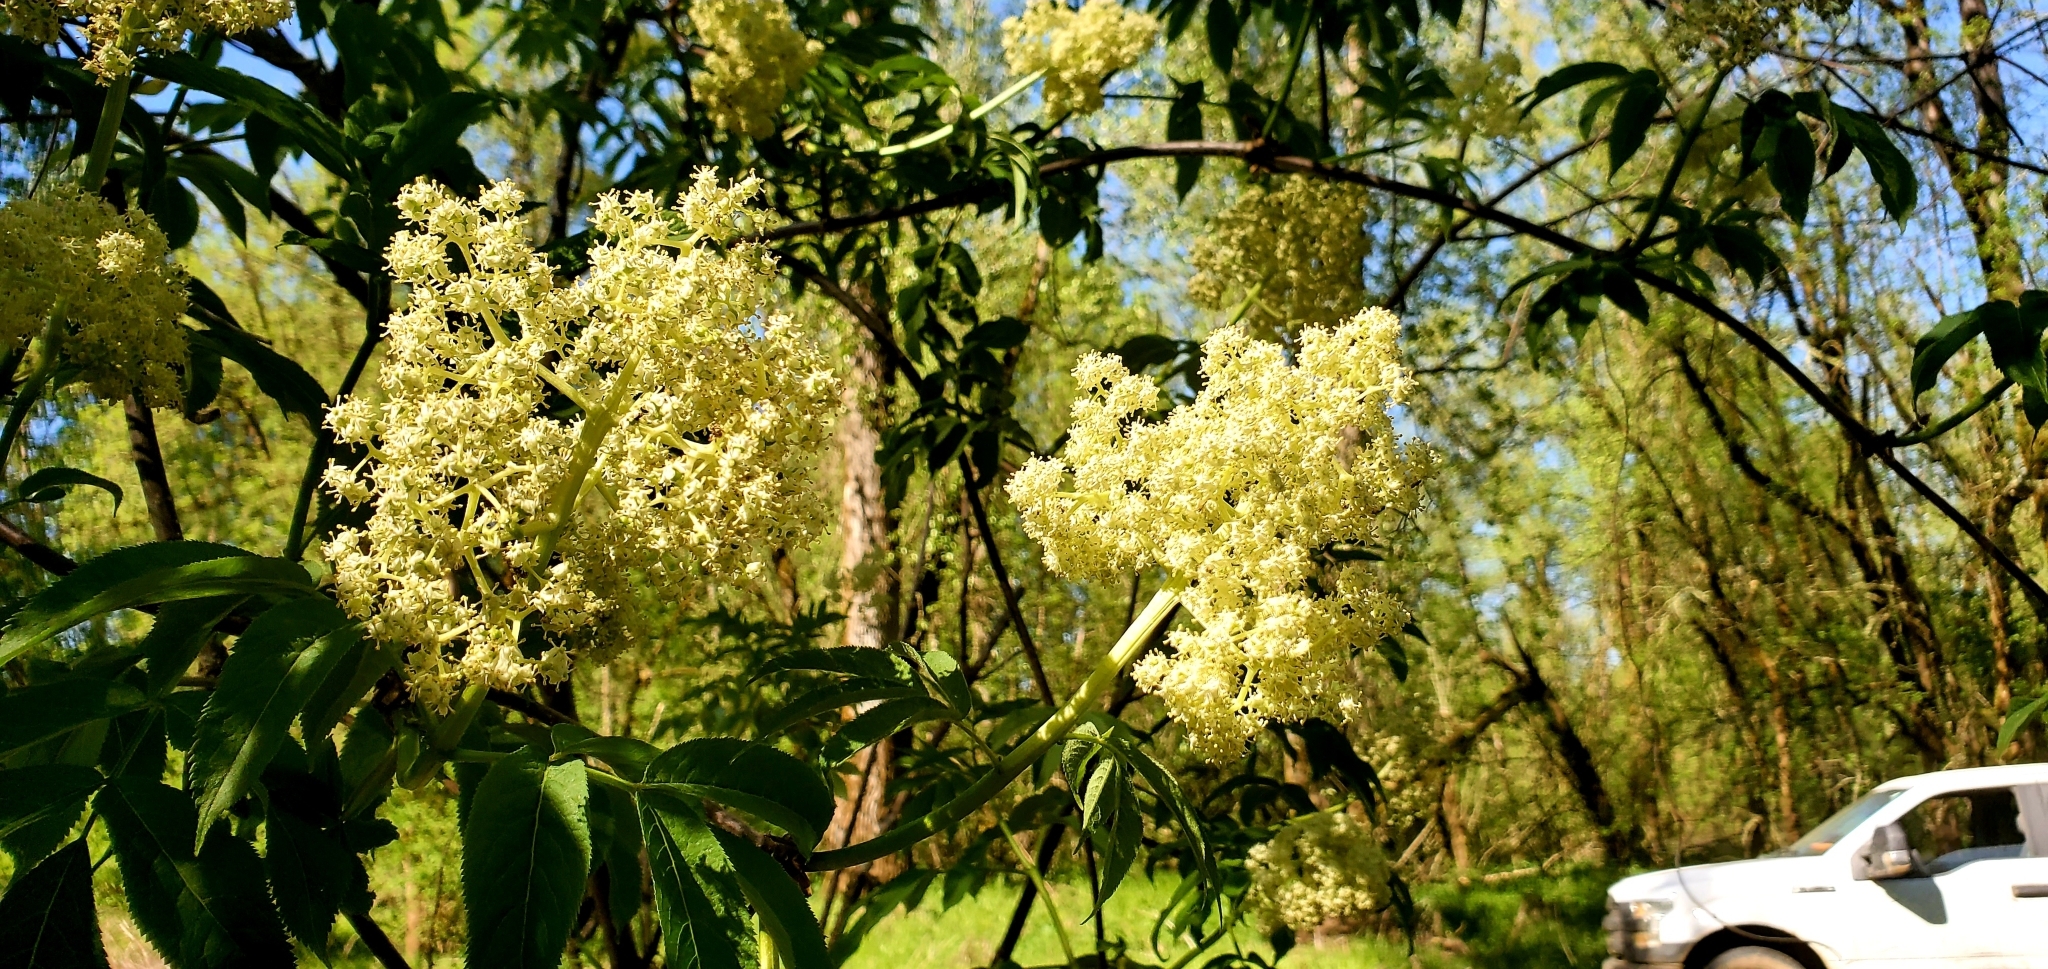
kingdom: Plantae
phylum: Tracheophyta
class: Magnoliopsida
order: Dipsacales
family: Viburnaceae
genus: Sambucus
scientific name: Sambucus racemosa
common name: Red-berried elder
